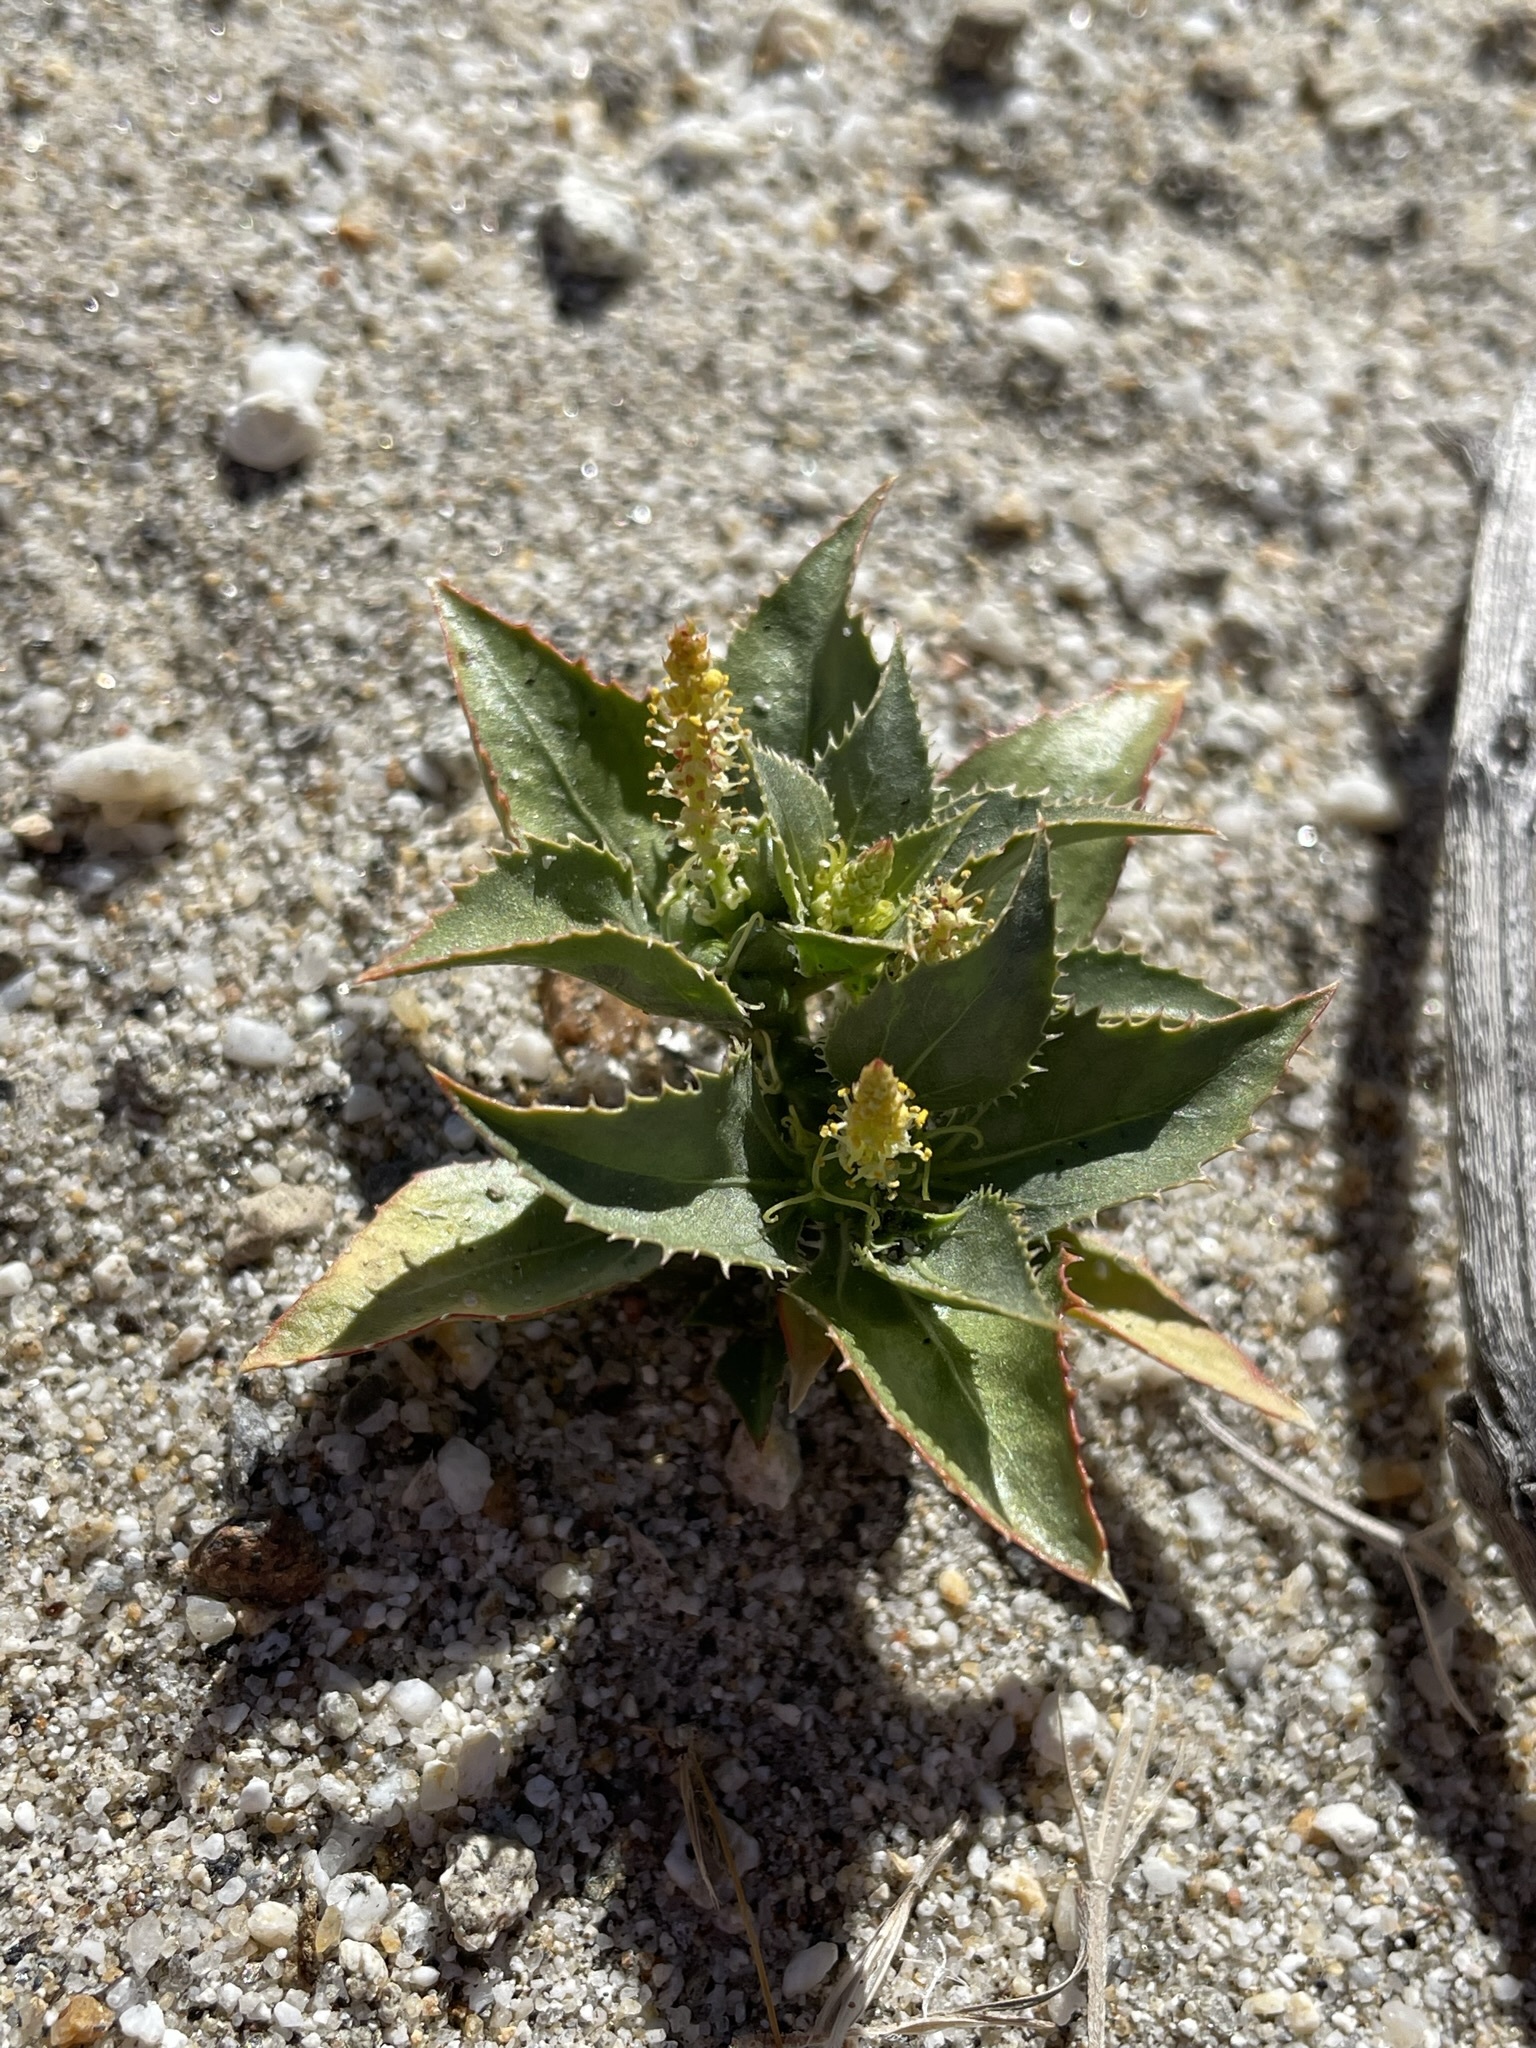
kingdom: Plantae
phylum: Tracheophyta
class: Magnoliopsida
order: Malpighiales
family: Euphorbiaceae
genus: Stillingia
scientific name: Stillingia spinulosa
